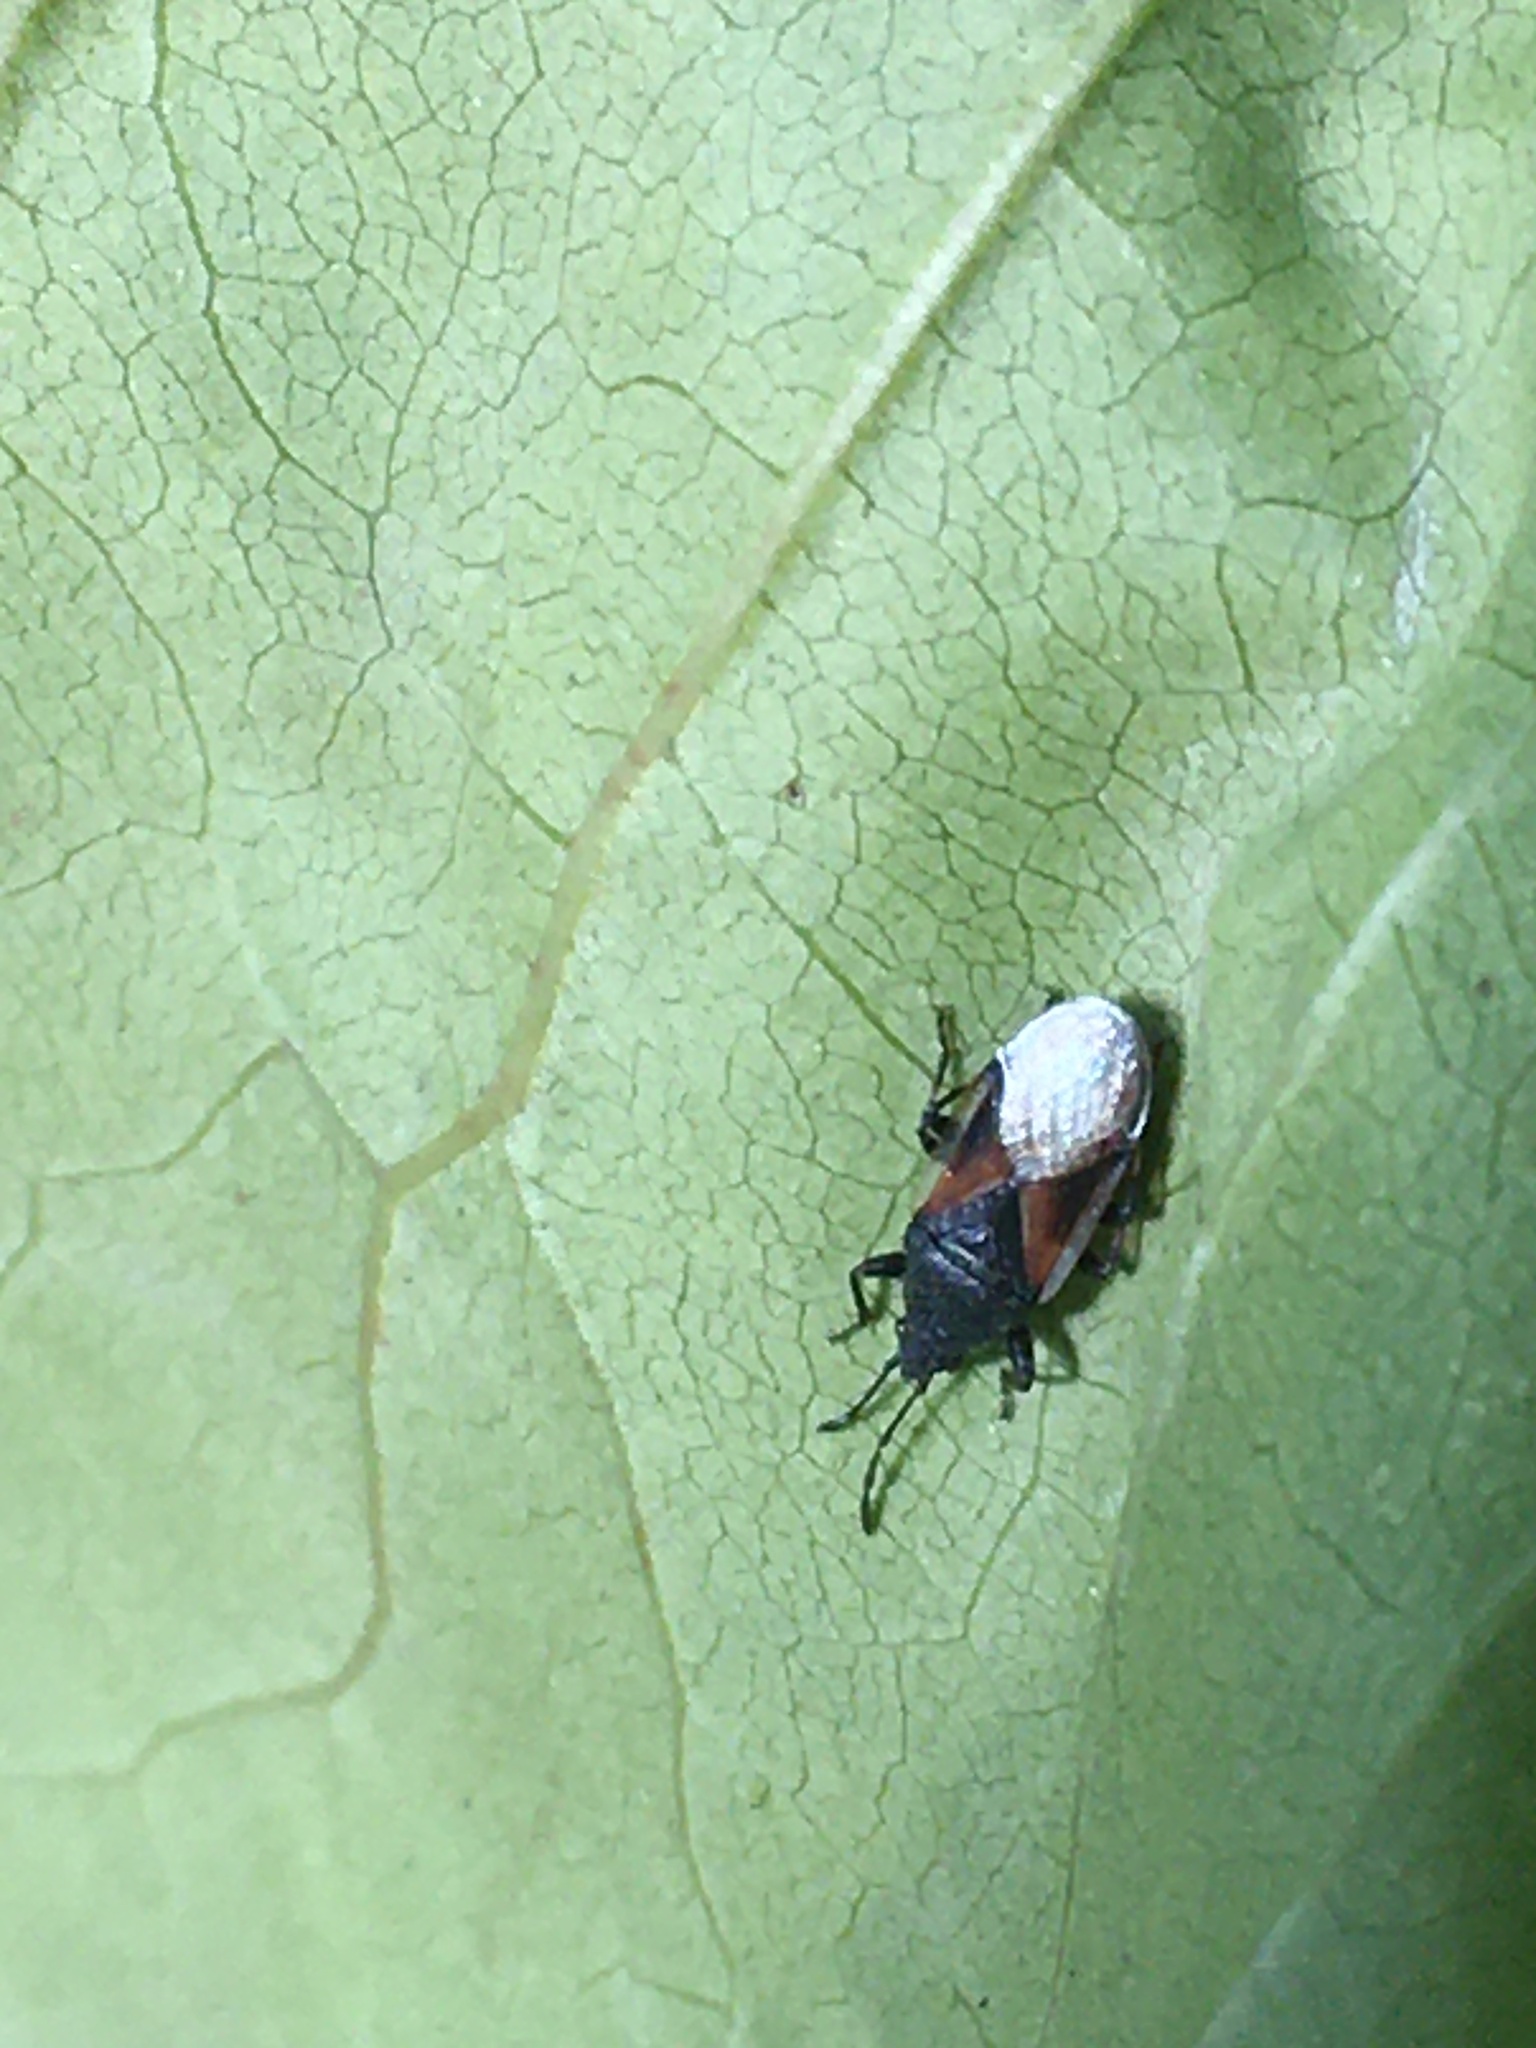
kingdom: Animalia
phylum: Arthropoda
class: Insecta
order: Hemiptera
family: Oxycarenidae
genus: Oxycarenus
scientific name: Oxycarenus lavaterae
